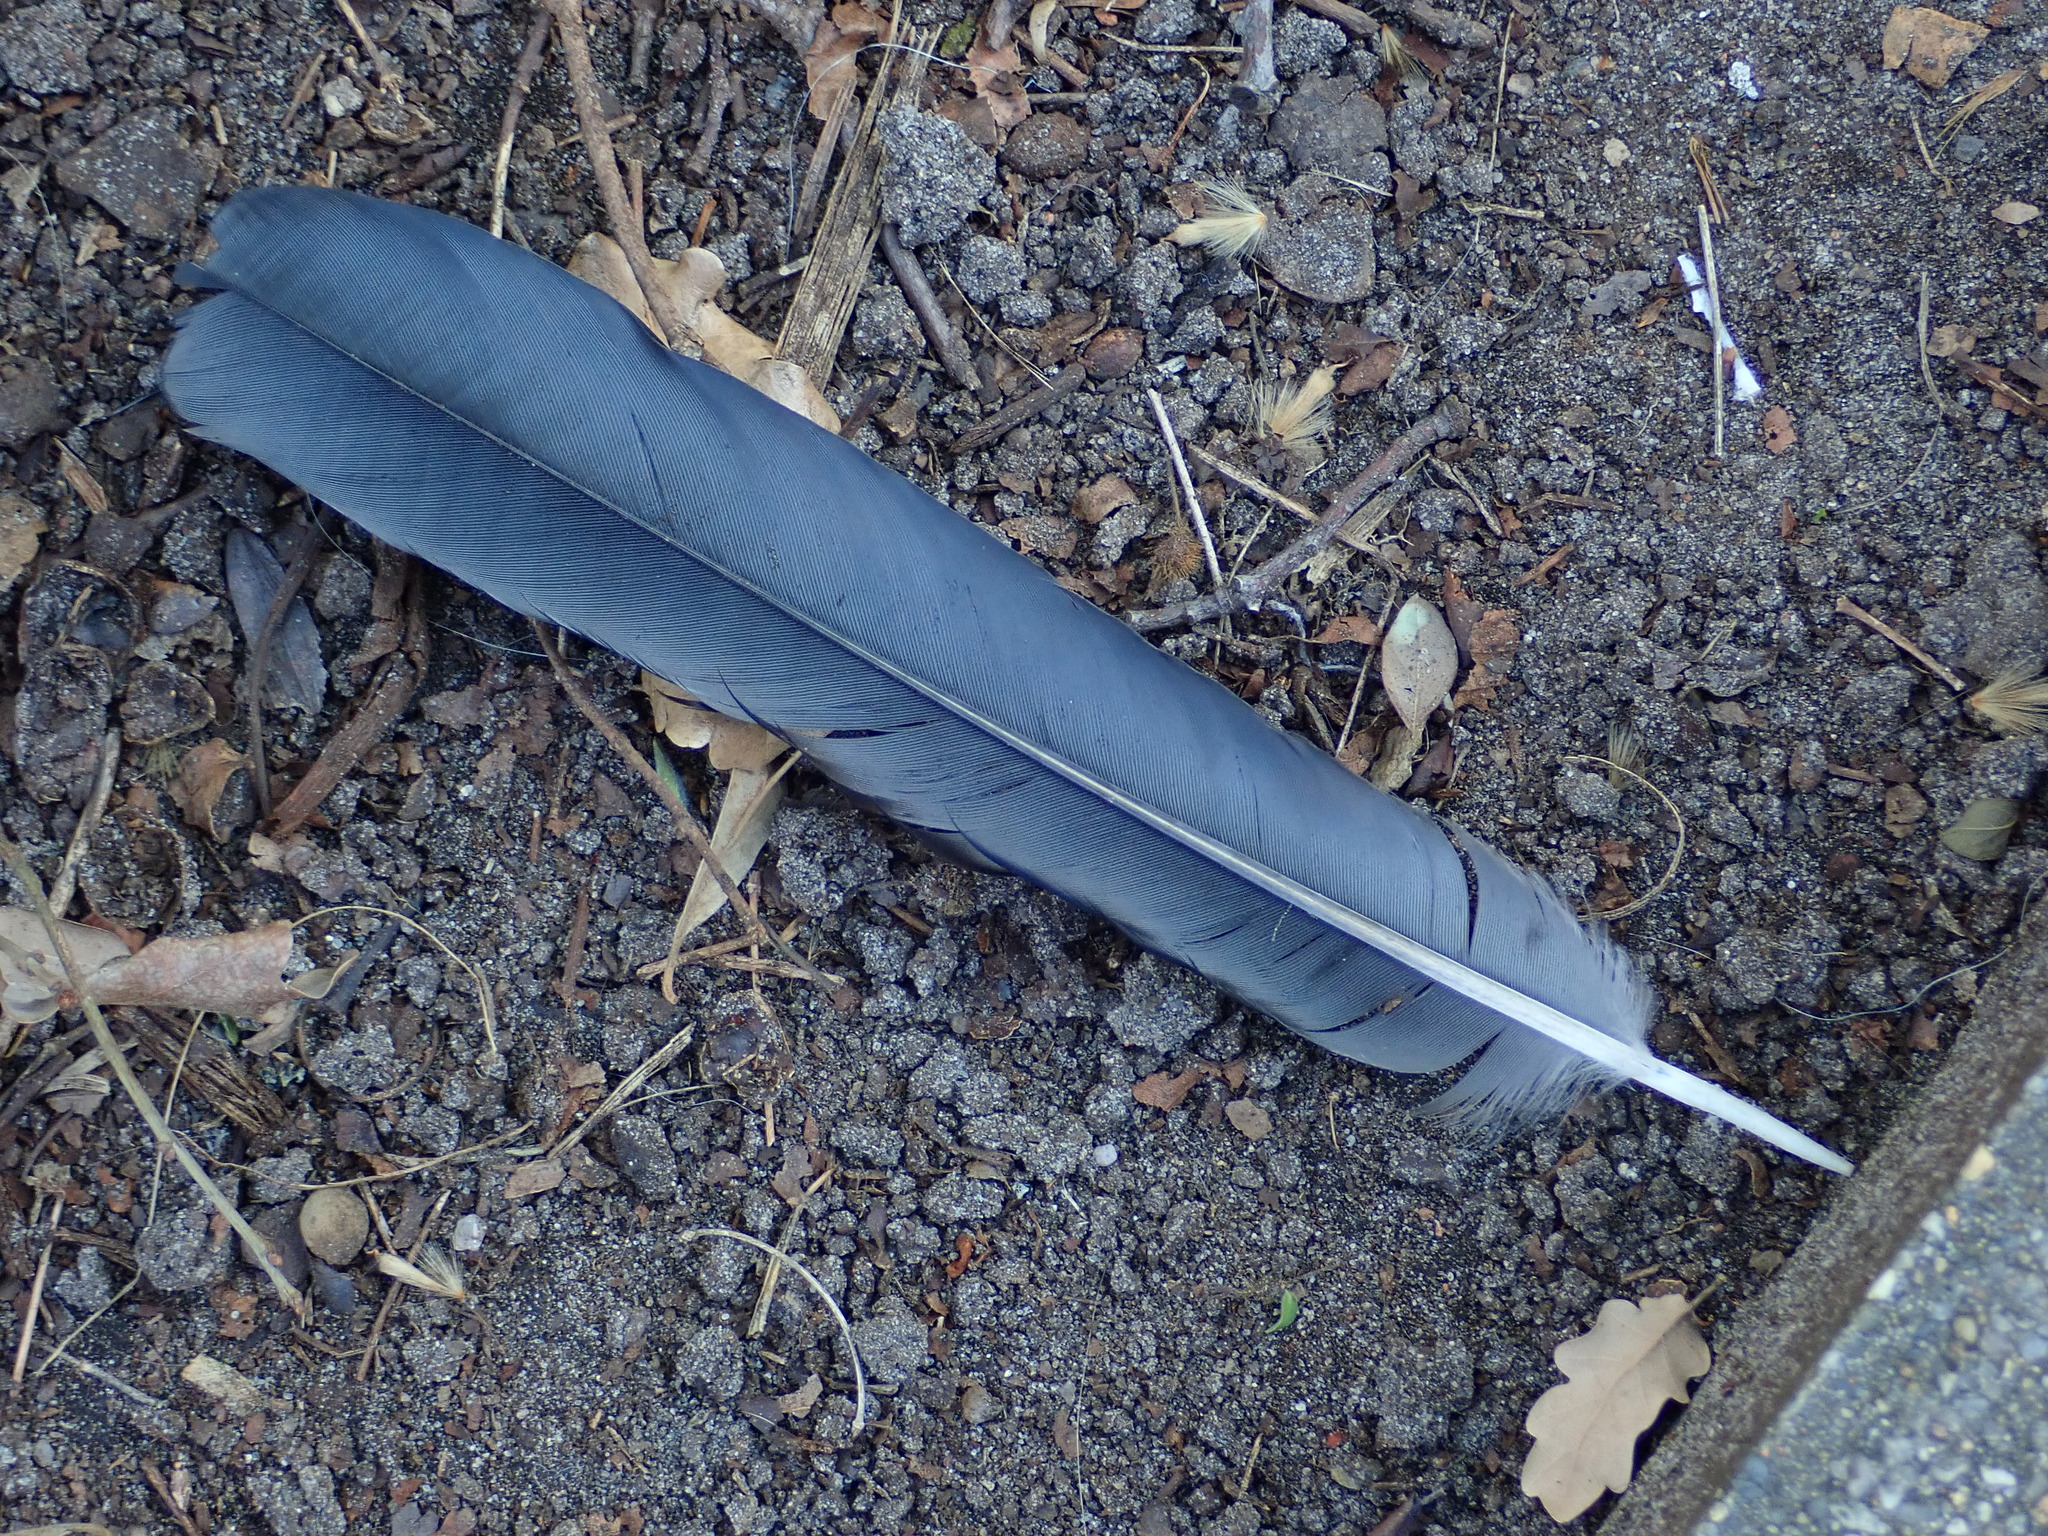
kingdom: Animalia
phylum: Chordata
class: Aves
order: Passeriformes
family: Corvidae
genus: Corvus
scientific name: Corvus cornix
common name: Hooded crow
